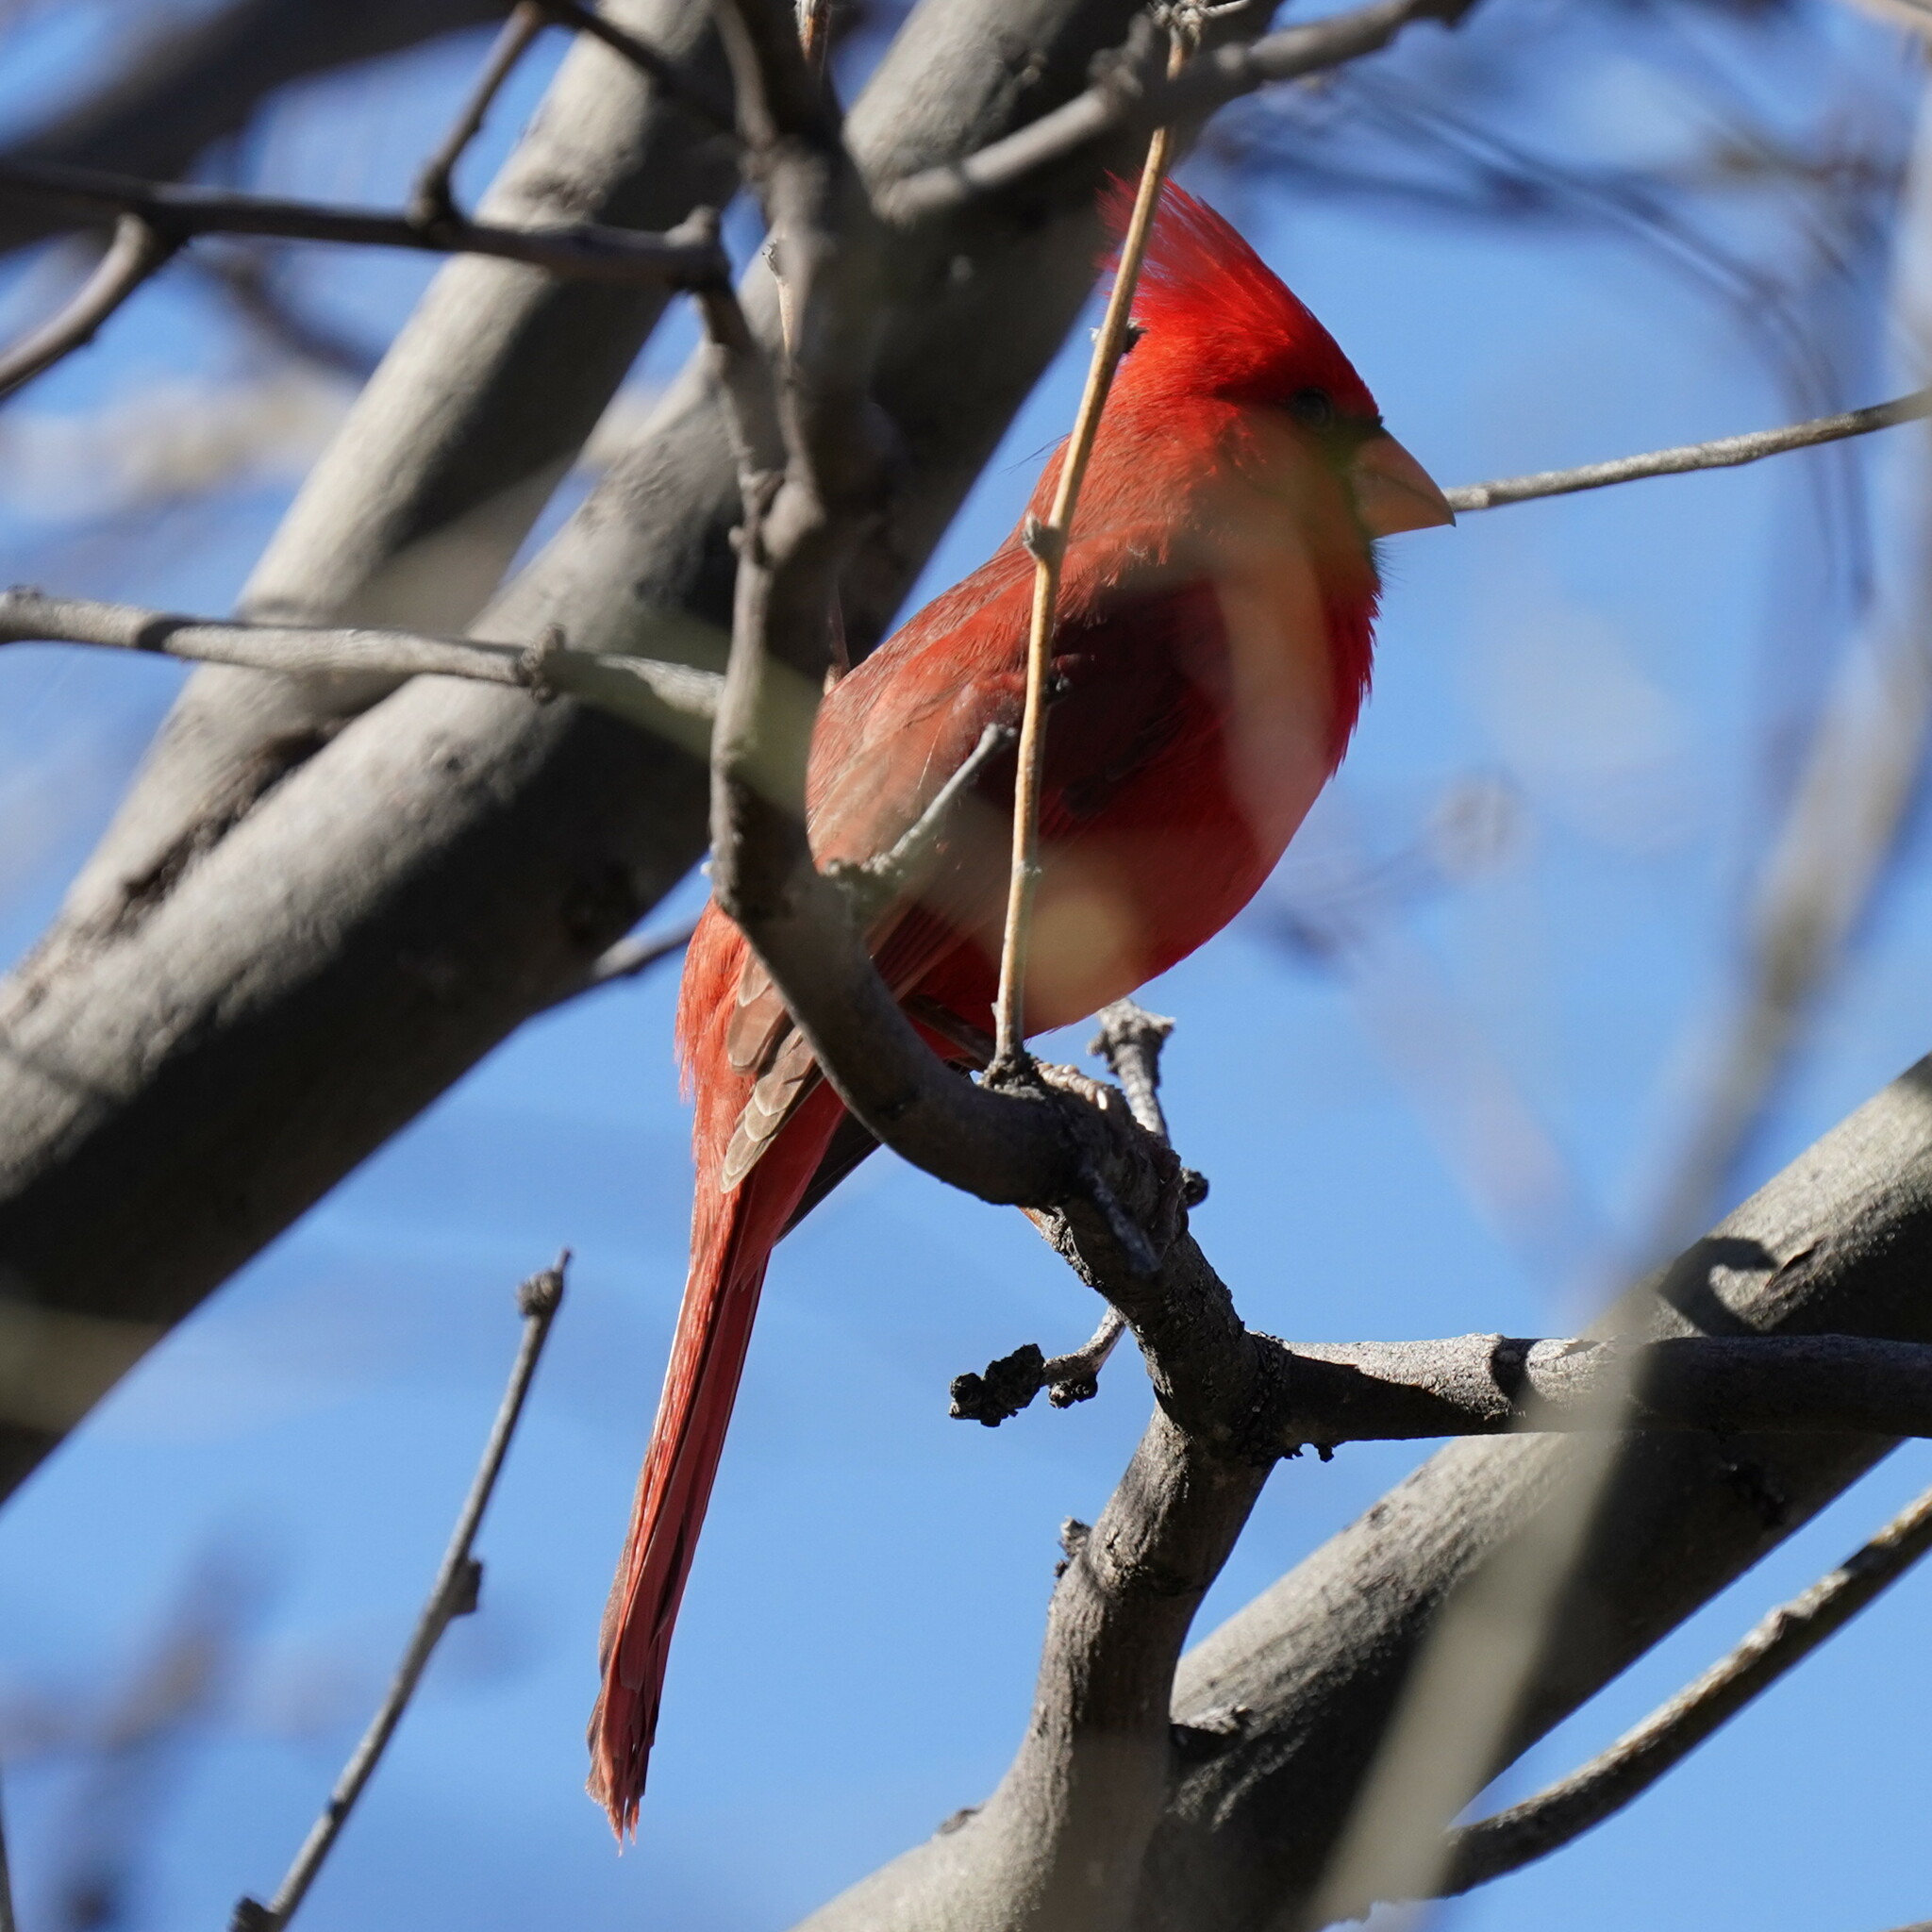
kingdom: Animalia
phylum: Chordata
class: Aves
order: Passeriformes
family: Cardinalidae
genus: Cardinalis
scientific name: Cardinalis cardinalis
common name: Northern cardinal
